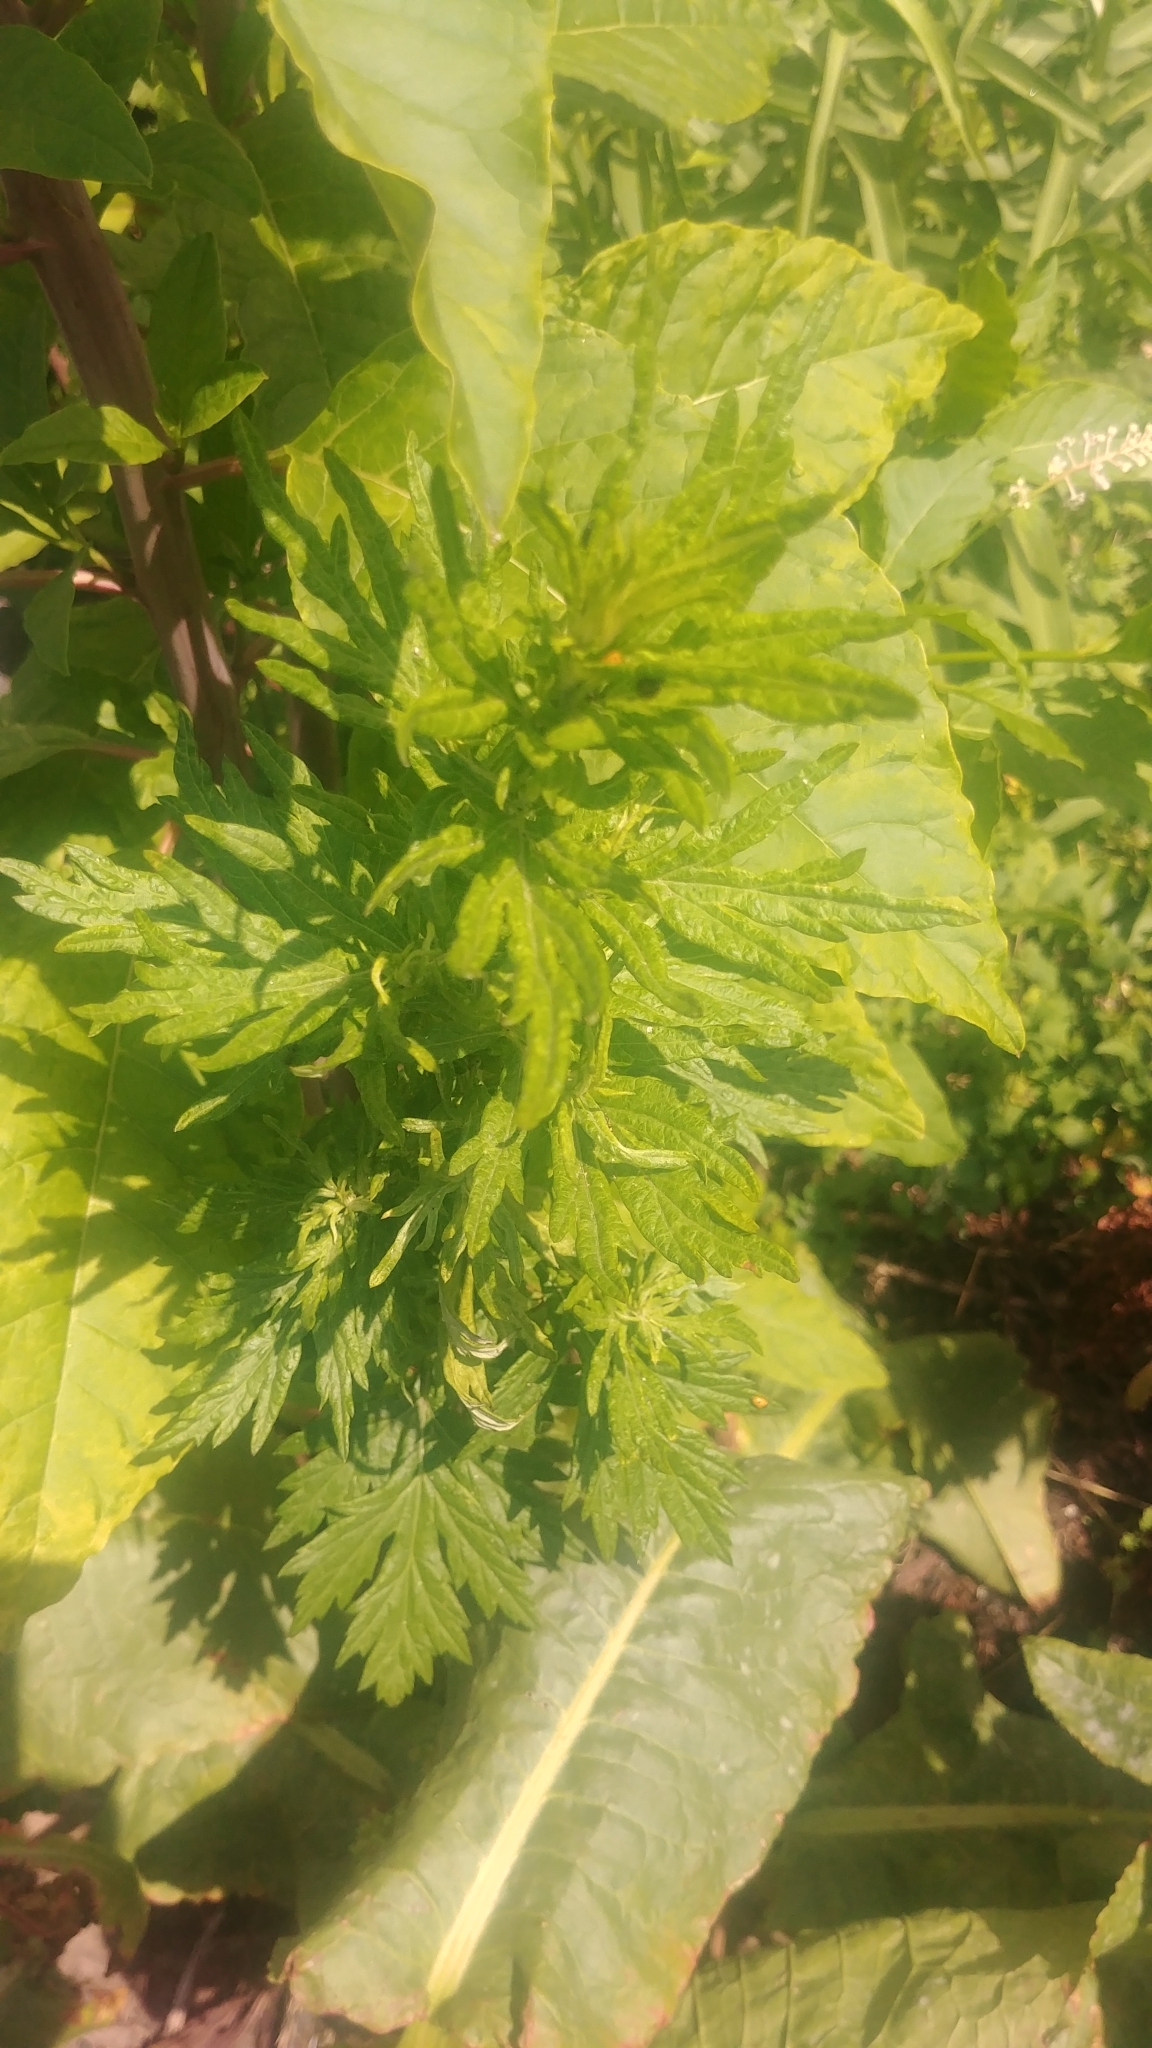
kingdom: Plantae
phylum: Tracheophyta
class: Magnoliopsida
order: Asterales
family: Asteraceae
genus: Artemisia
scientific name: Artemisia vulgaris
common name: Mugwort
